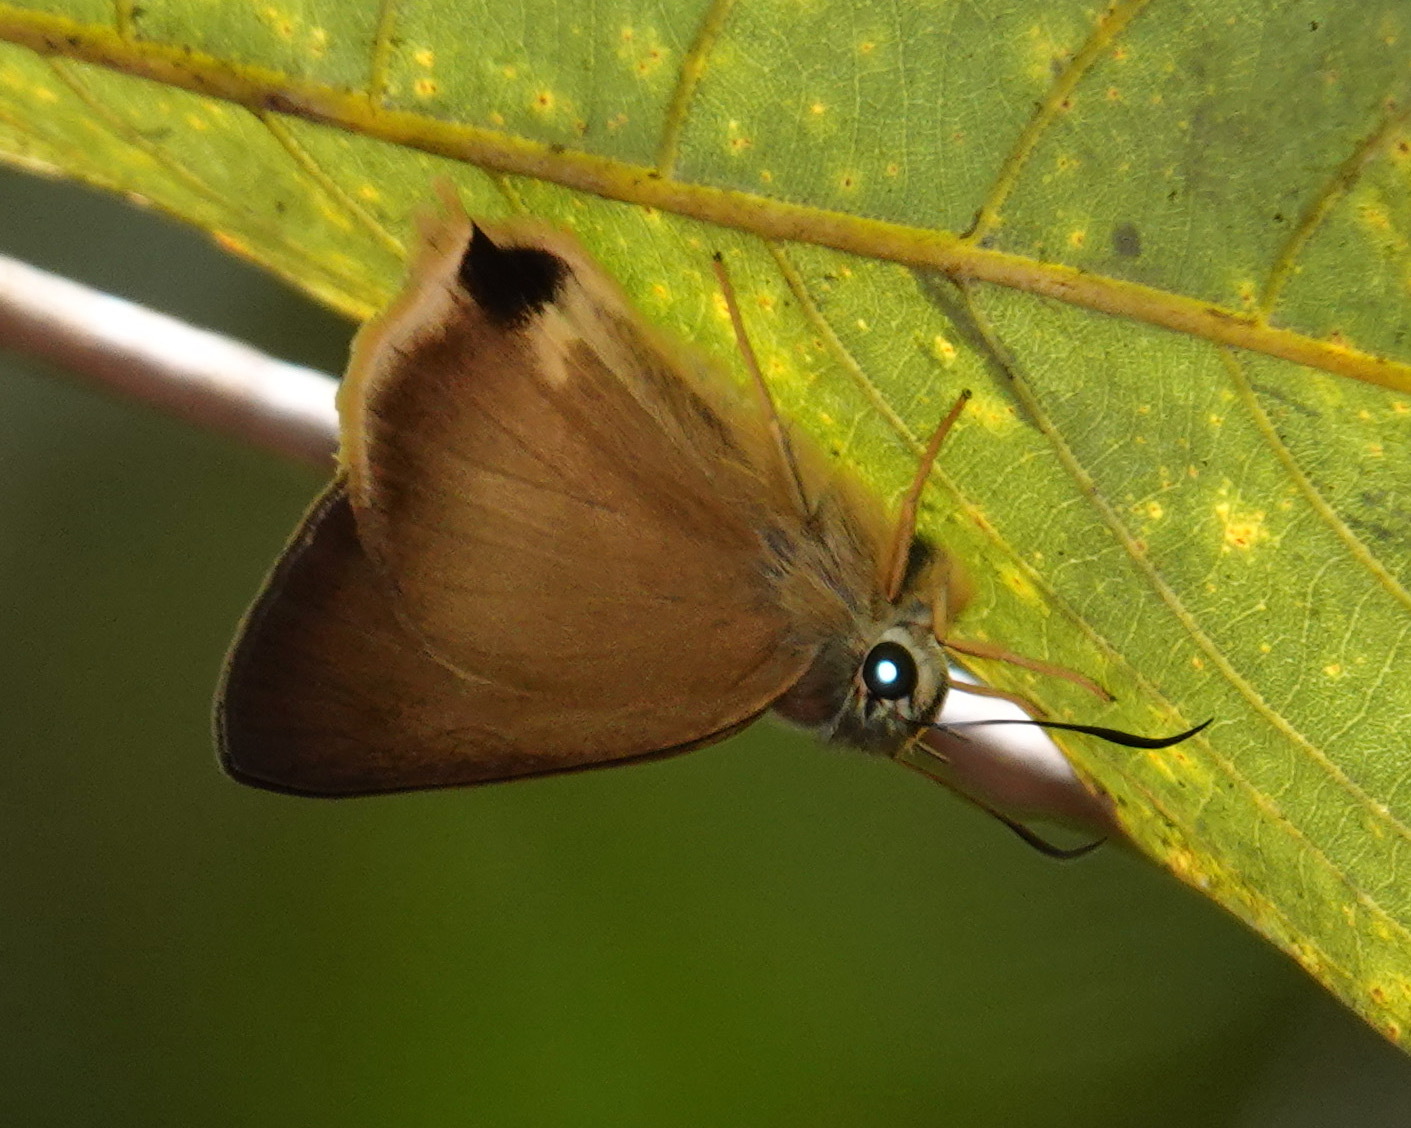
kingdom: Animalia
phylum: Arthropoda
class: Insecta
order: Lepidoptera
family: Hesperiidae
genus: Hasora
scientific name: Hasora mus
